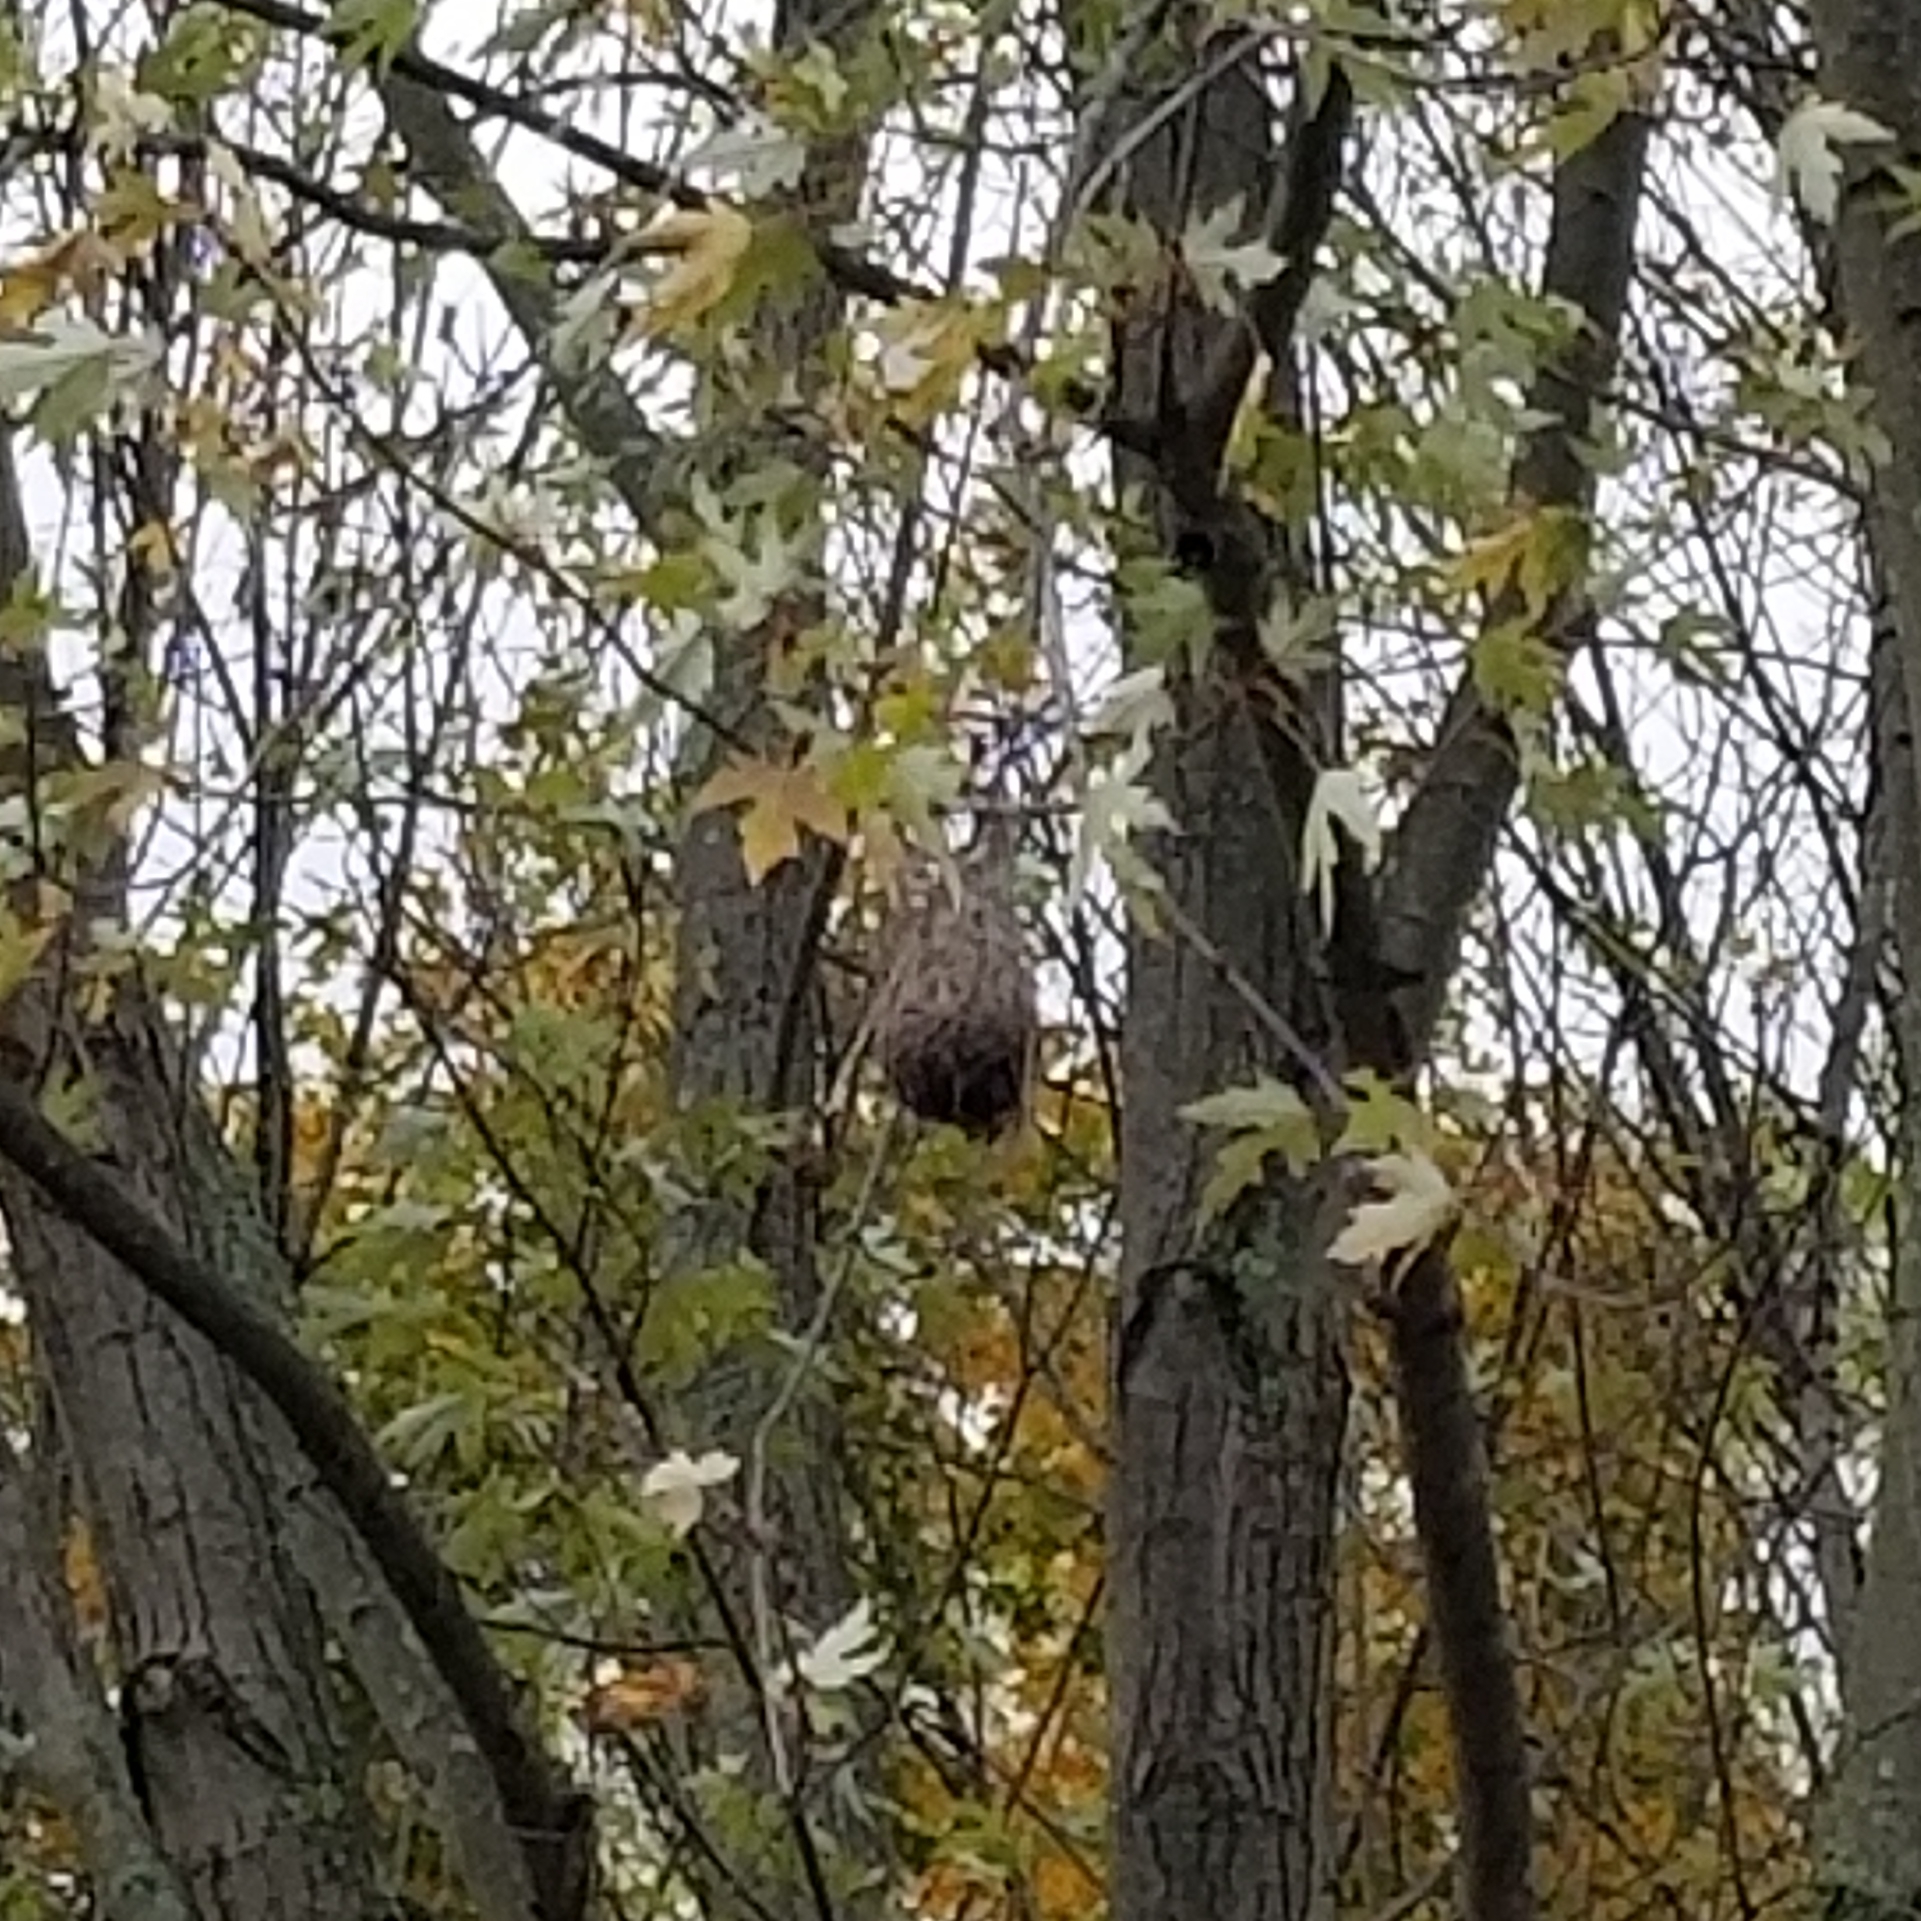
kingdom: Animalia
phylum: Chordata
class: Aves
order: Passeriformes
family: Icteridae
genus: Icterus
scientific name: Icterus galbula
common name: Baltimore oriole
